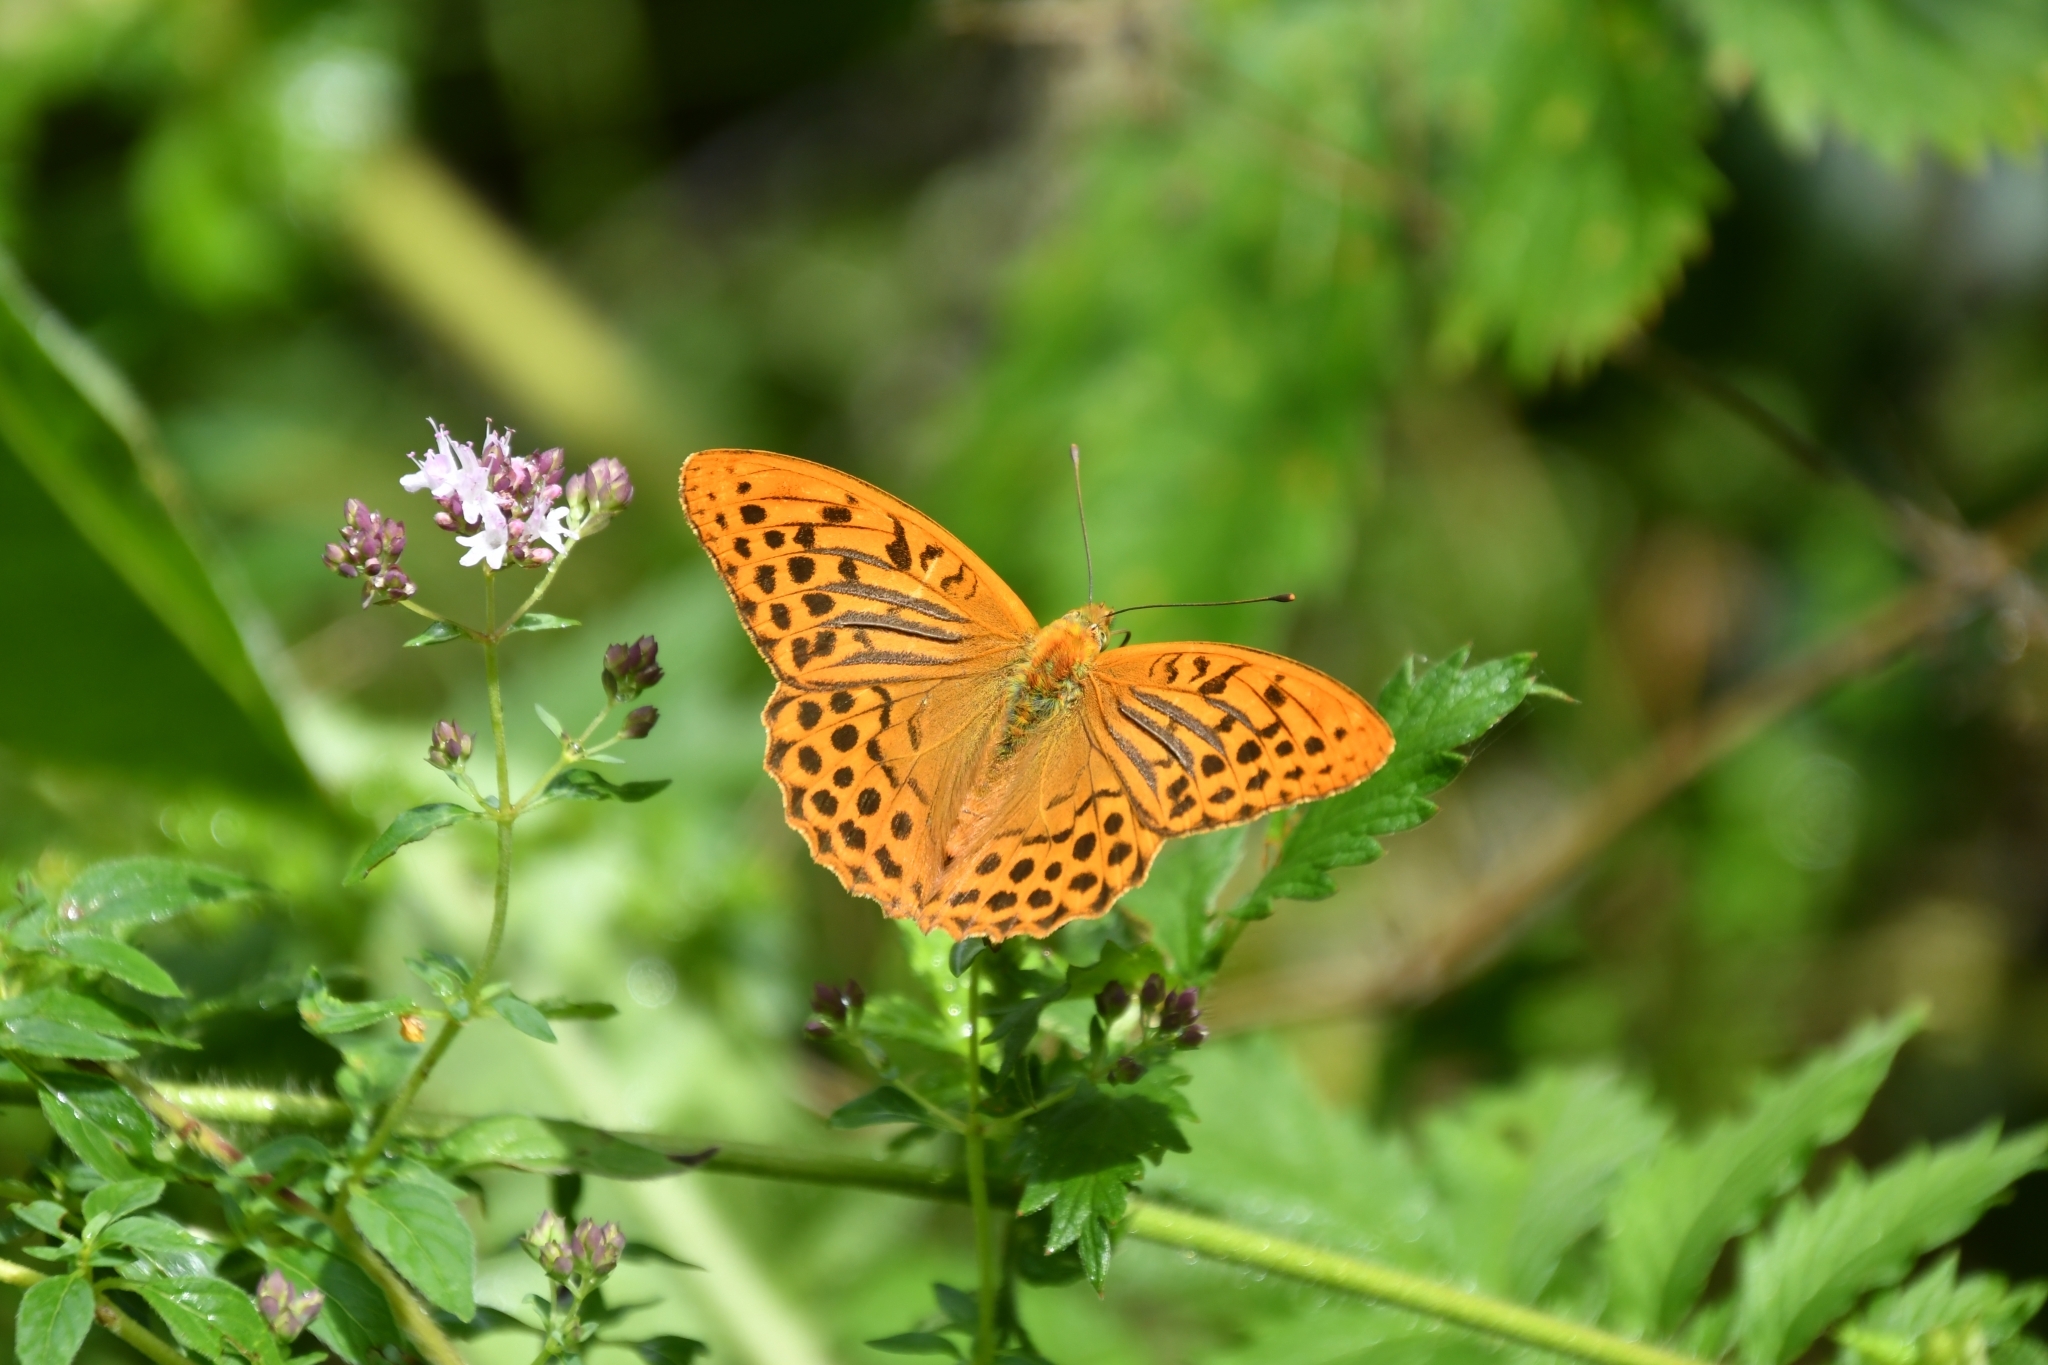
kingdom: Animalia
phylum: Arthropoda
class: Insecta
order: Lepidoptera
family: Nymphalidae
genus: Argynnis
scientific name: Argynnis paphia
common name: Silver-washed fritillary
